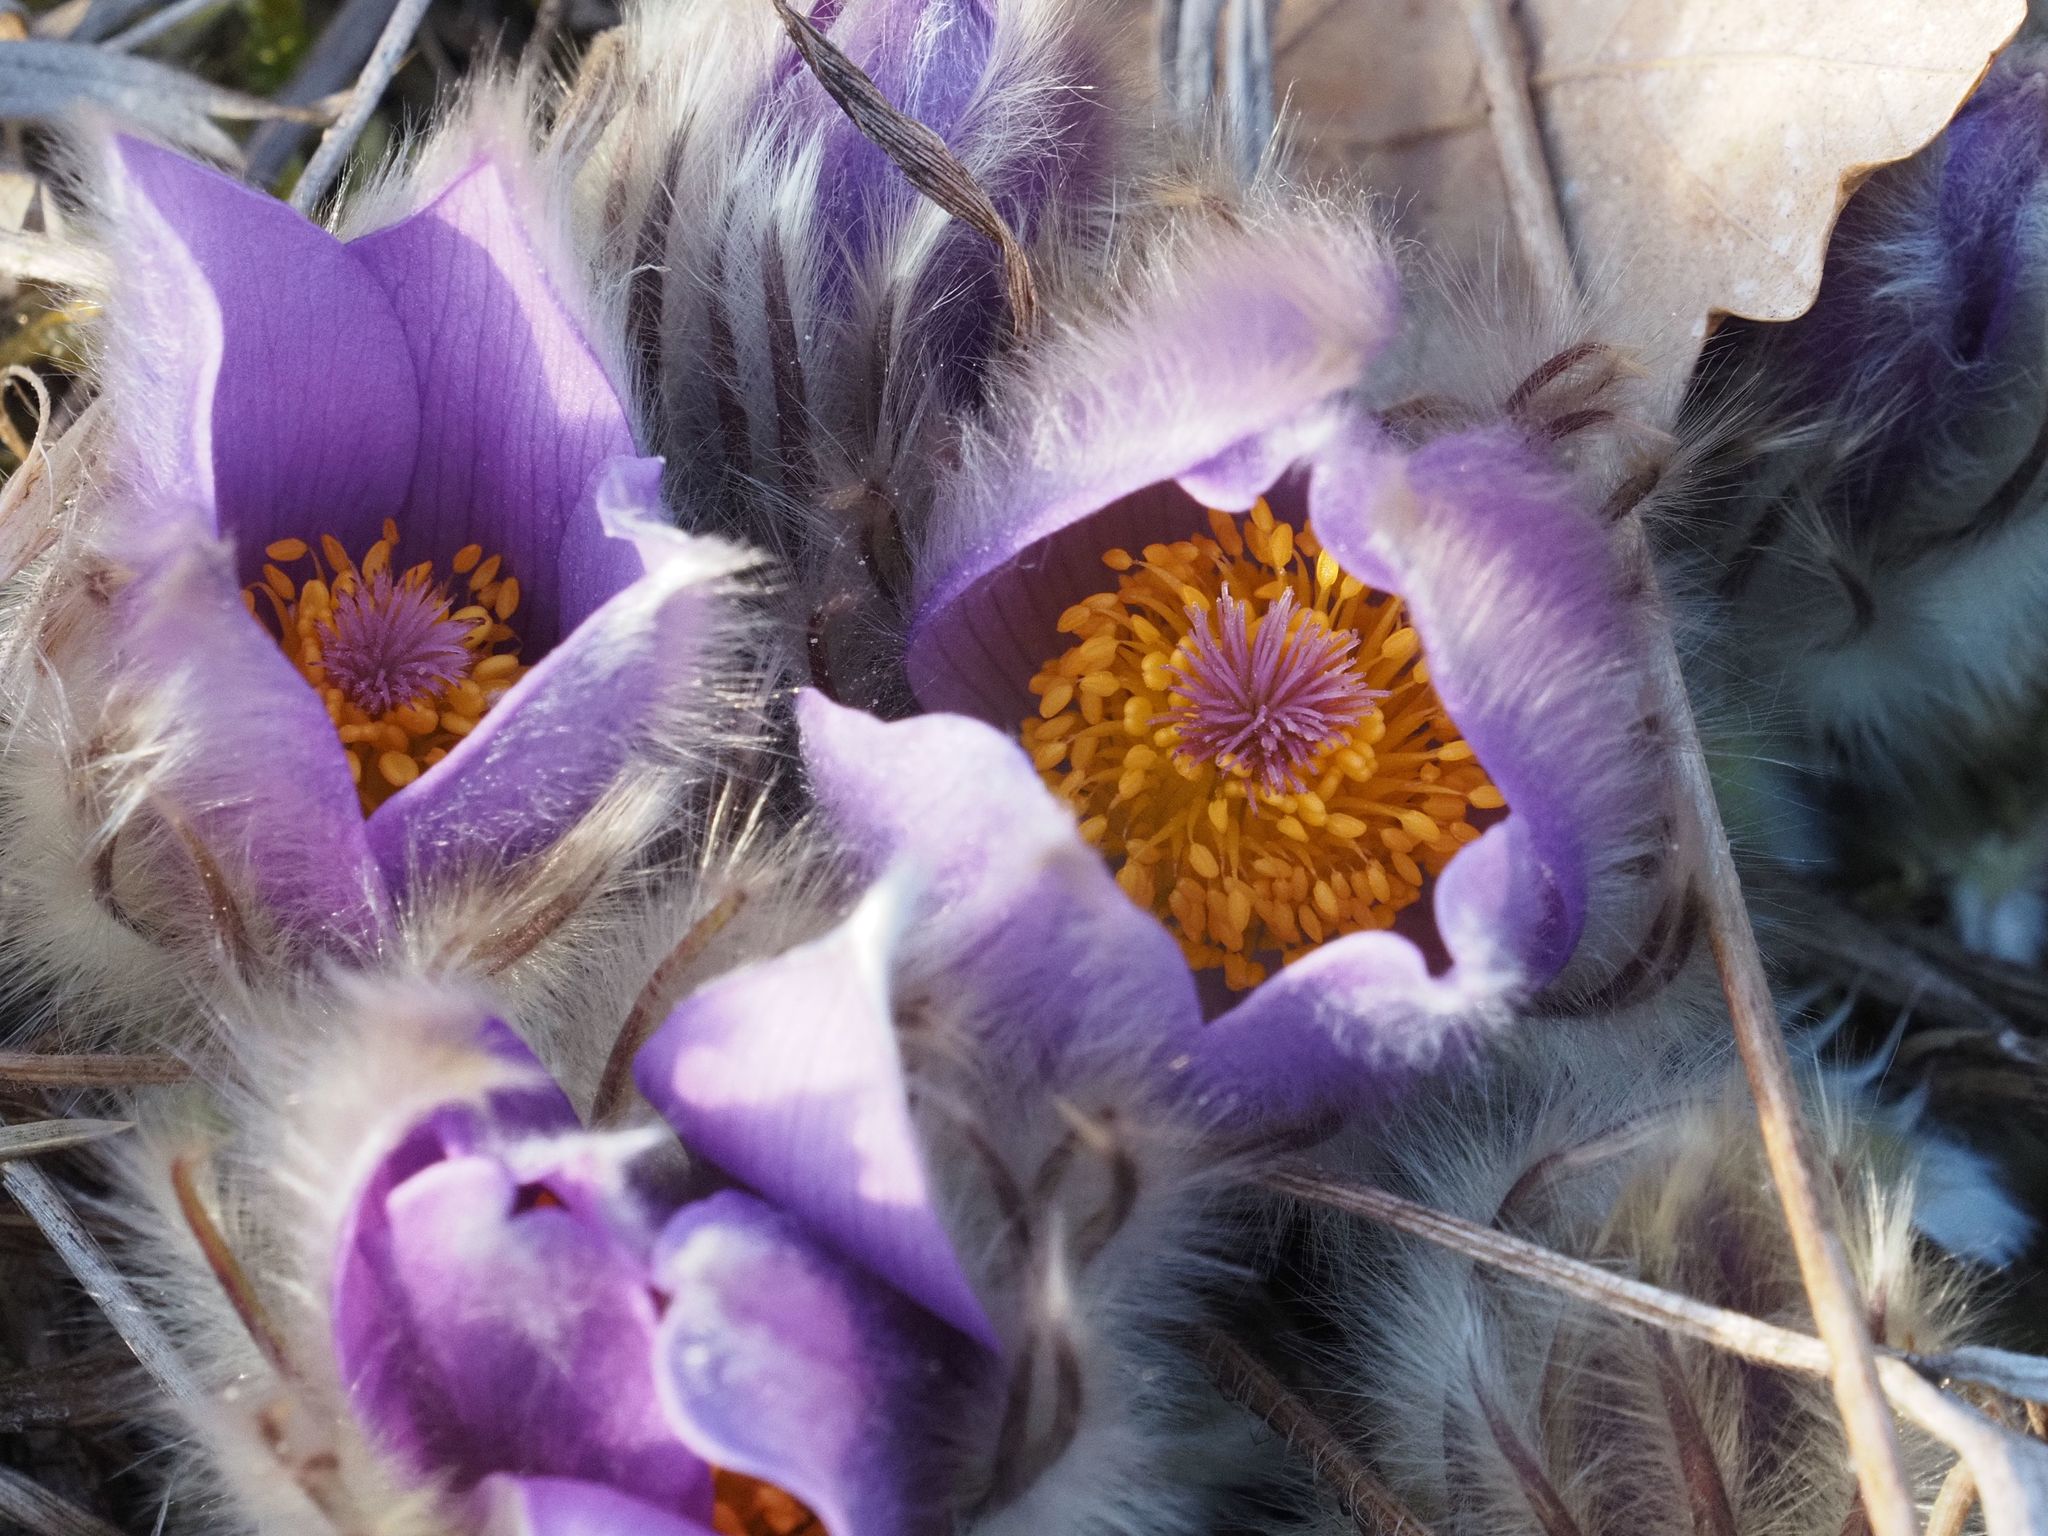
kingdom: Plantae
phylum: Tracheophyta
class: Magnoliopsida
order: Ranunculales
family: Ranunculaceae
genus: Pulsatilla
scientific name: Pulsatilla grandis
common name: Greater pasque flower
